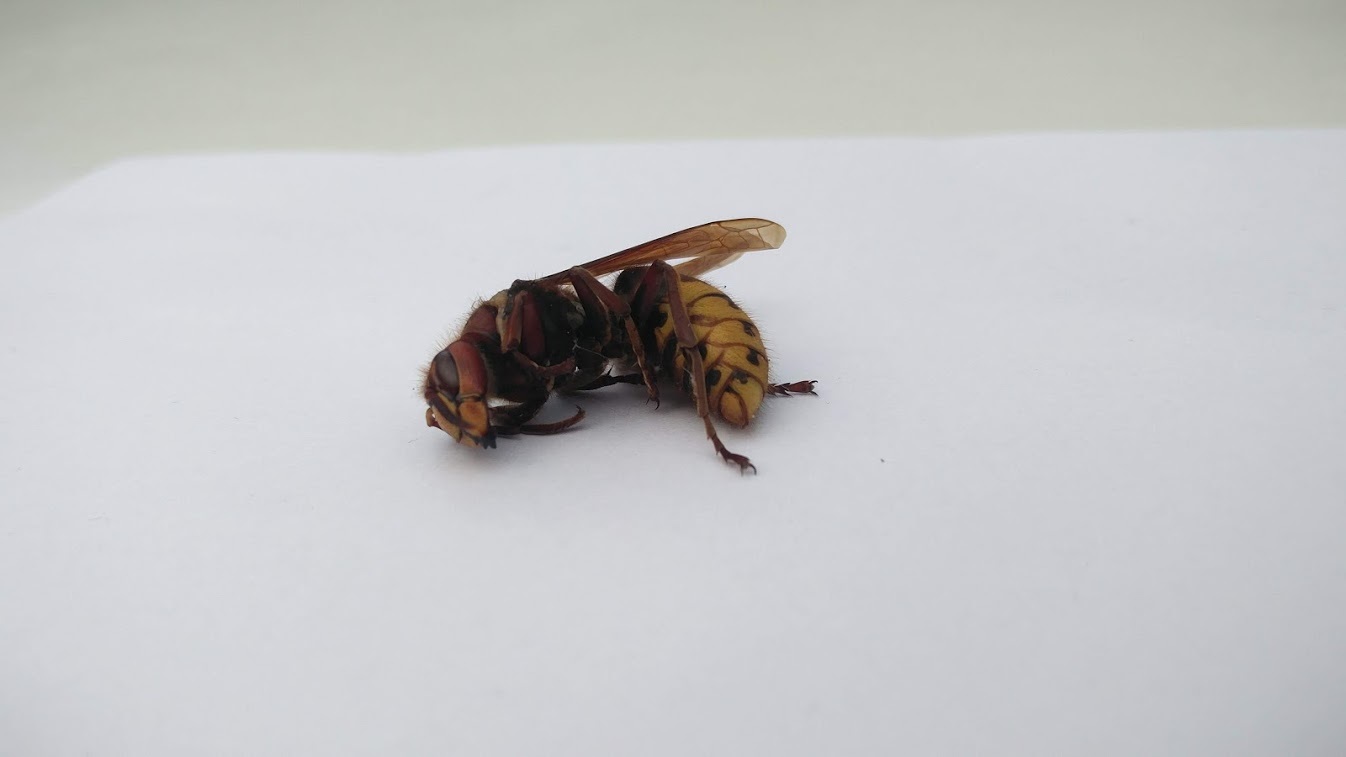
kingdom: Animalia
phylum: Arthropoda
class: Insecta
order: Hymenoptera
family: Vespidae
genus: Vespa
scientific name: Vespa crabro
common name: Hornet
